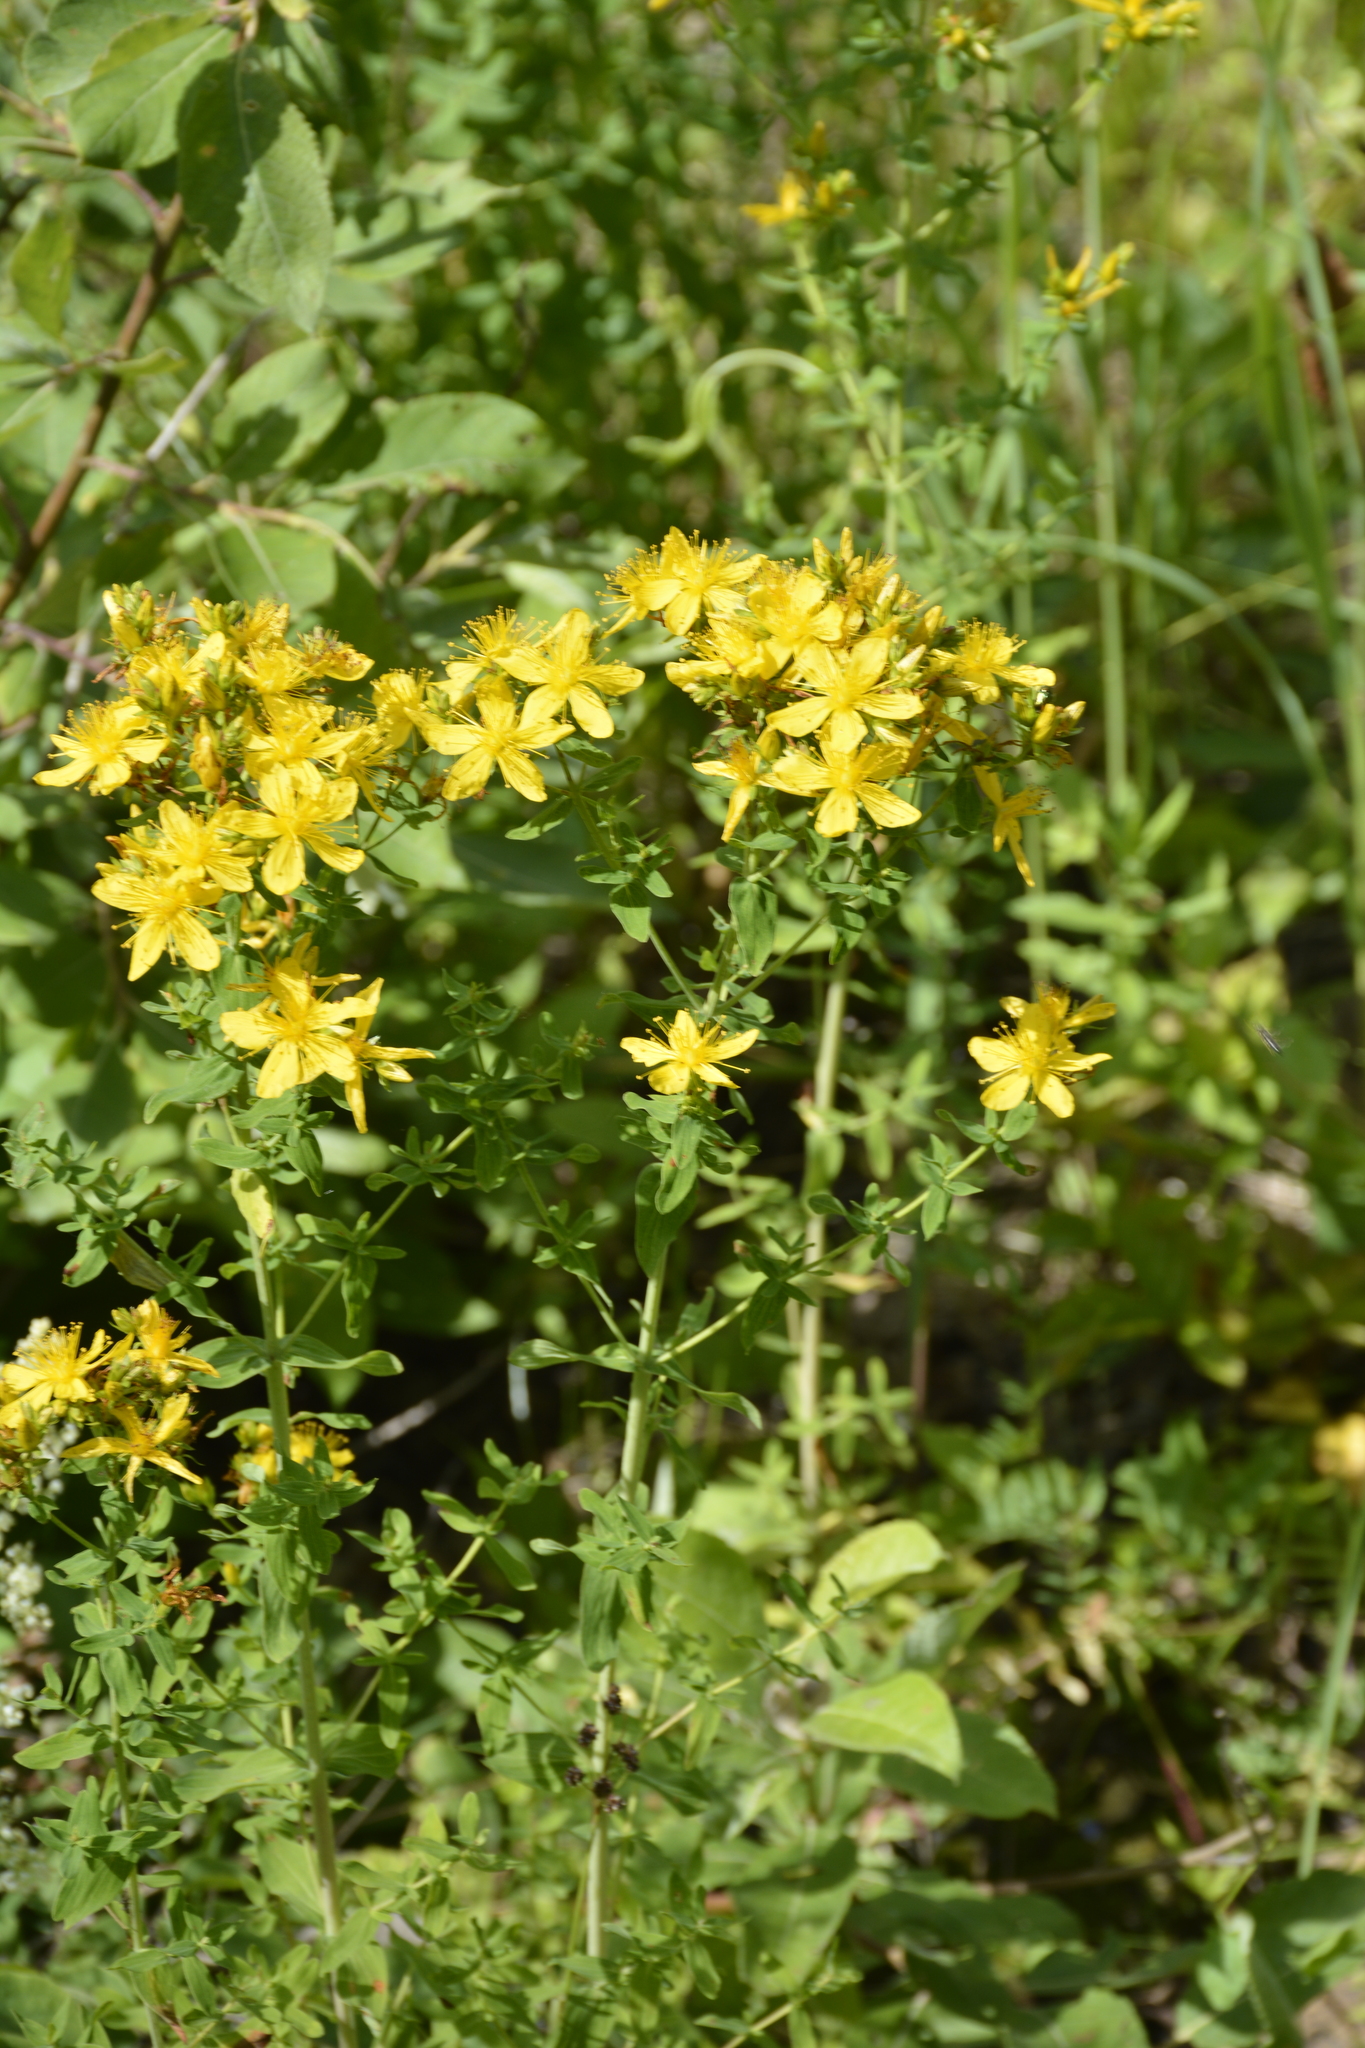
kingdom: Plantae
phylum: Tracheophyta
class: Magnoliopsida
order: Malpighiales
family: Hypericaceae
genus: Hypericum
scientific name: Hypericum perforatum
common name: Common st. johnswort
